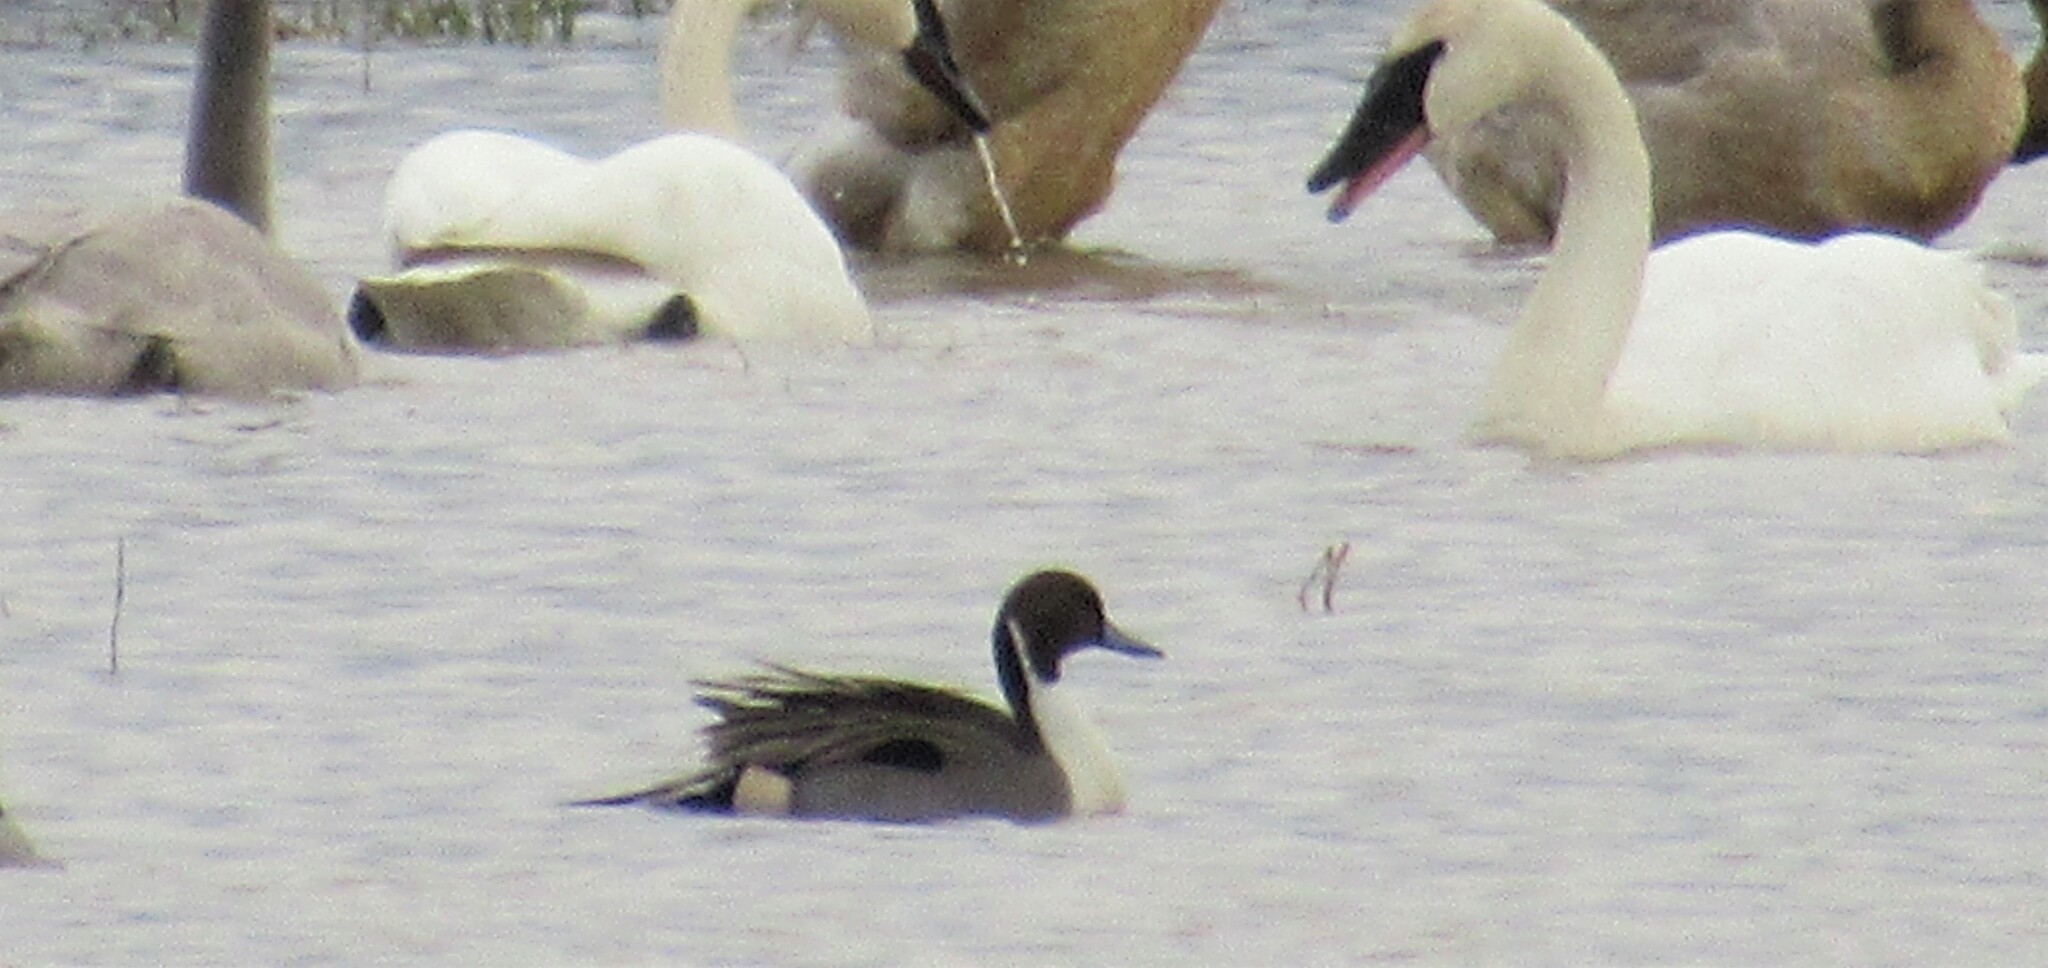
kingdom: Animalia
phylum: Chordata
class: Aves
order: Anseriformes
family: Anatidae
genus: Anas
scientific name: Anas acuta
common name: Northern pintail
